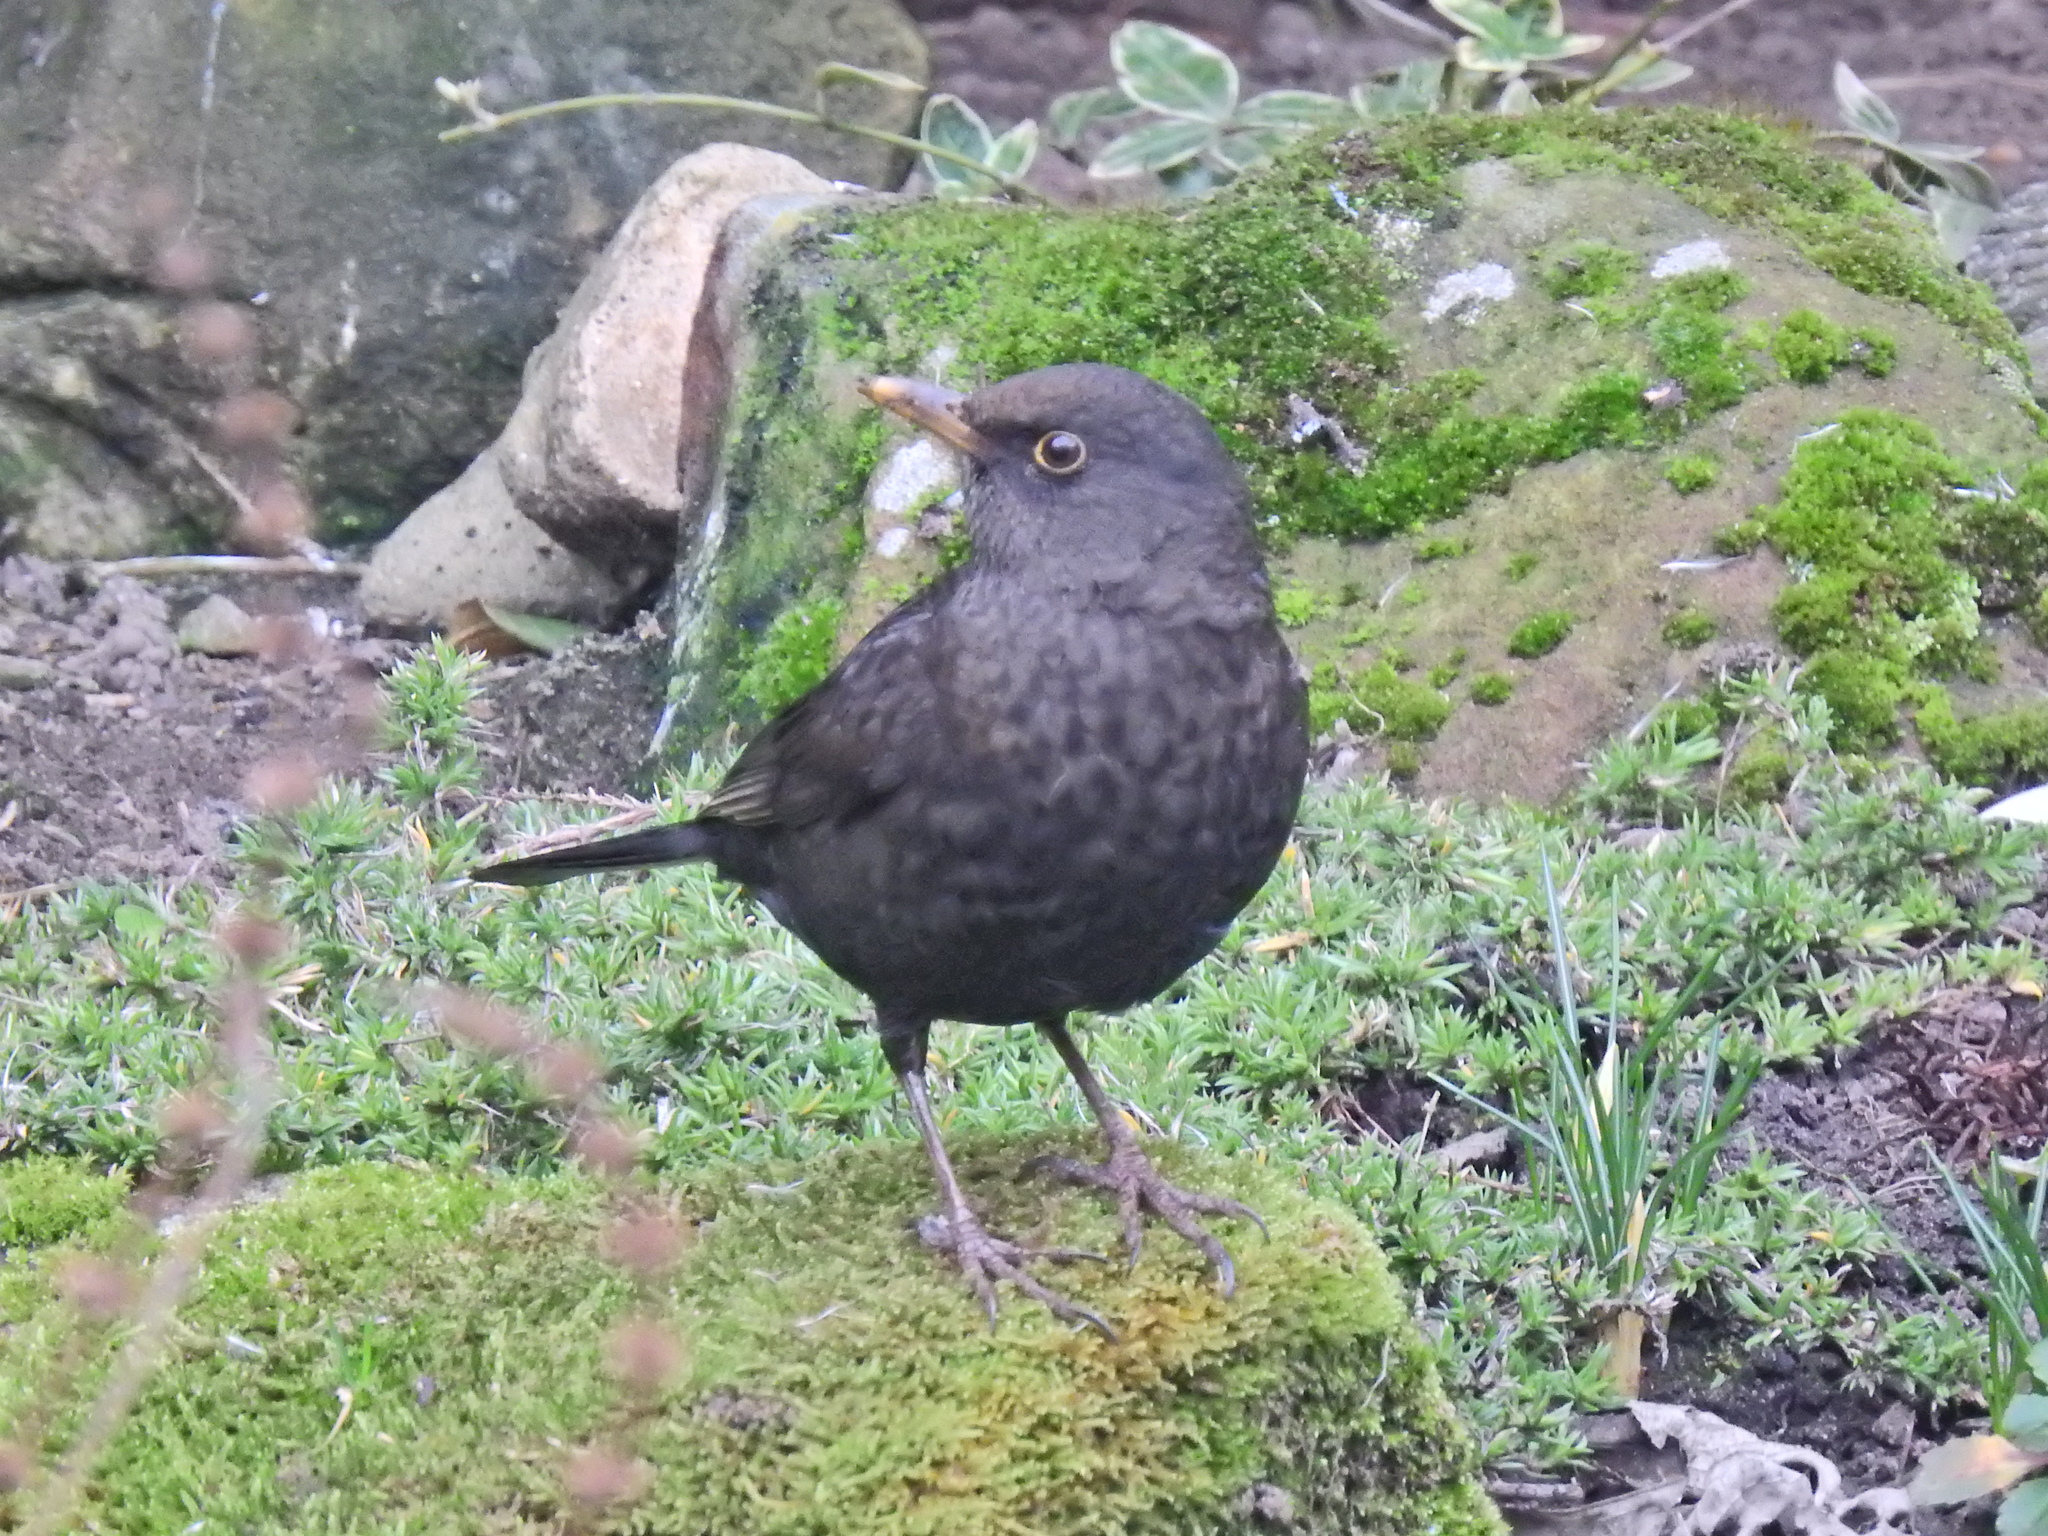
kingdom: Animalia
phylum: Chordata
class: Aves
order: Passeriformes
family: Turdidae
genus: Turdus
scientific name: Turdus merula
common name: Common blackbird
